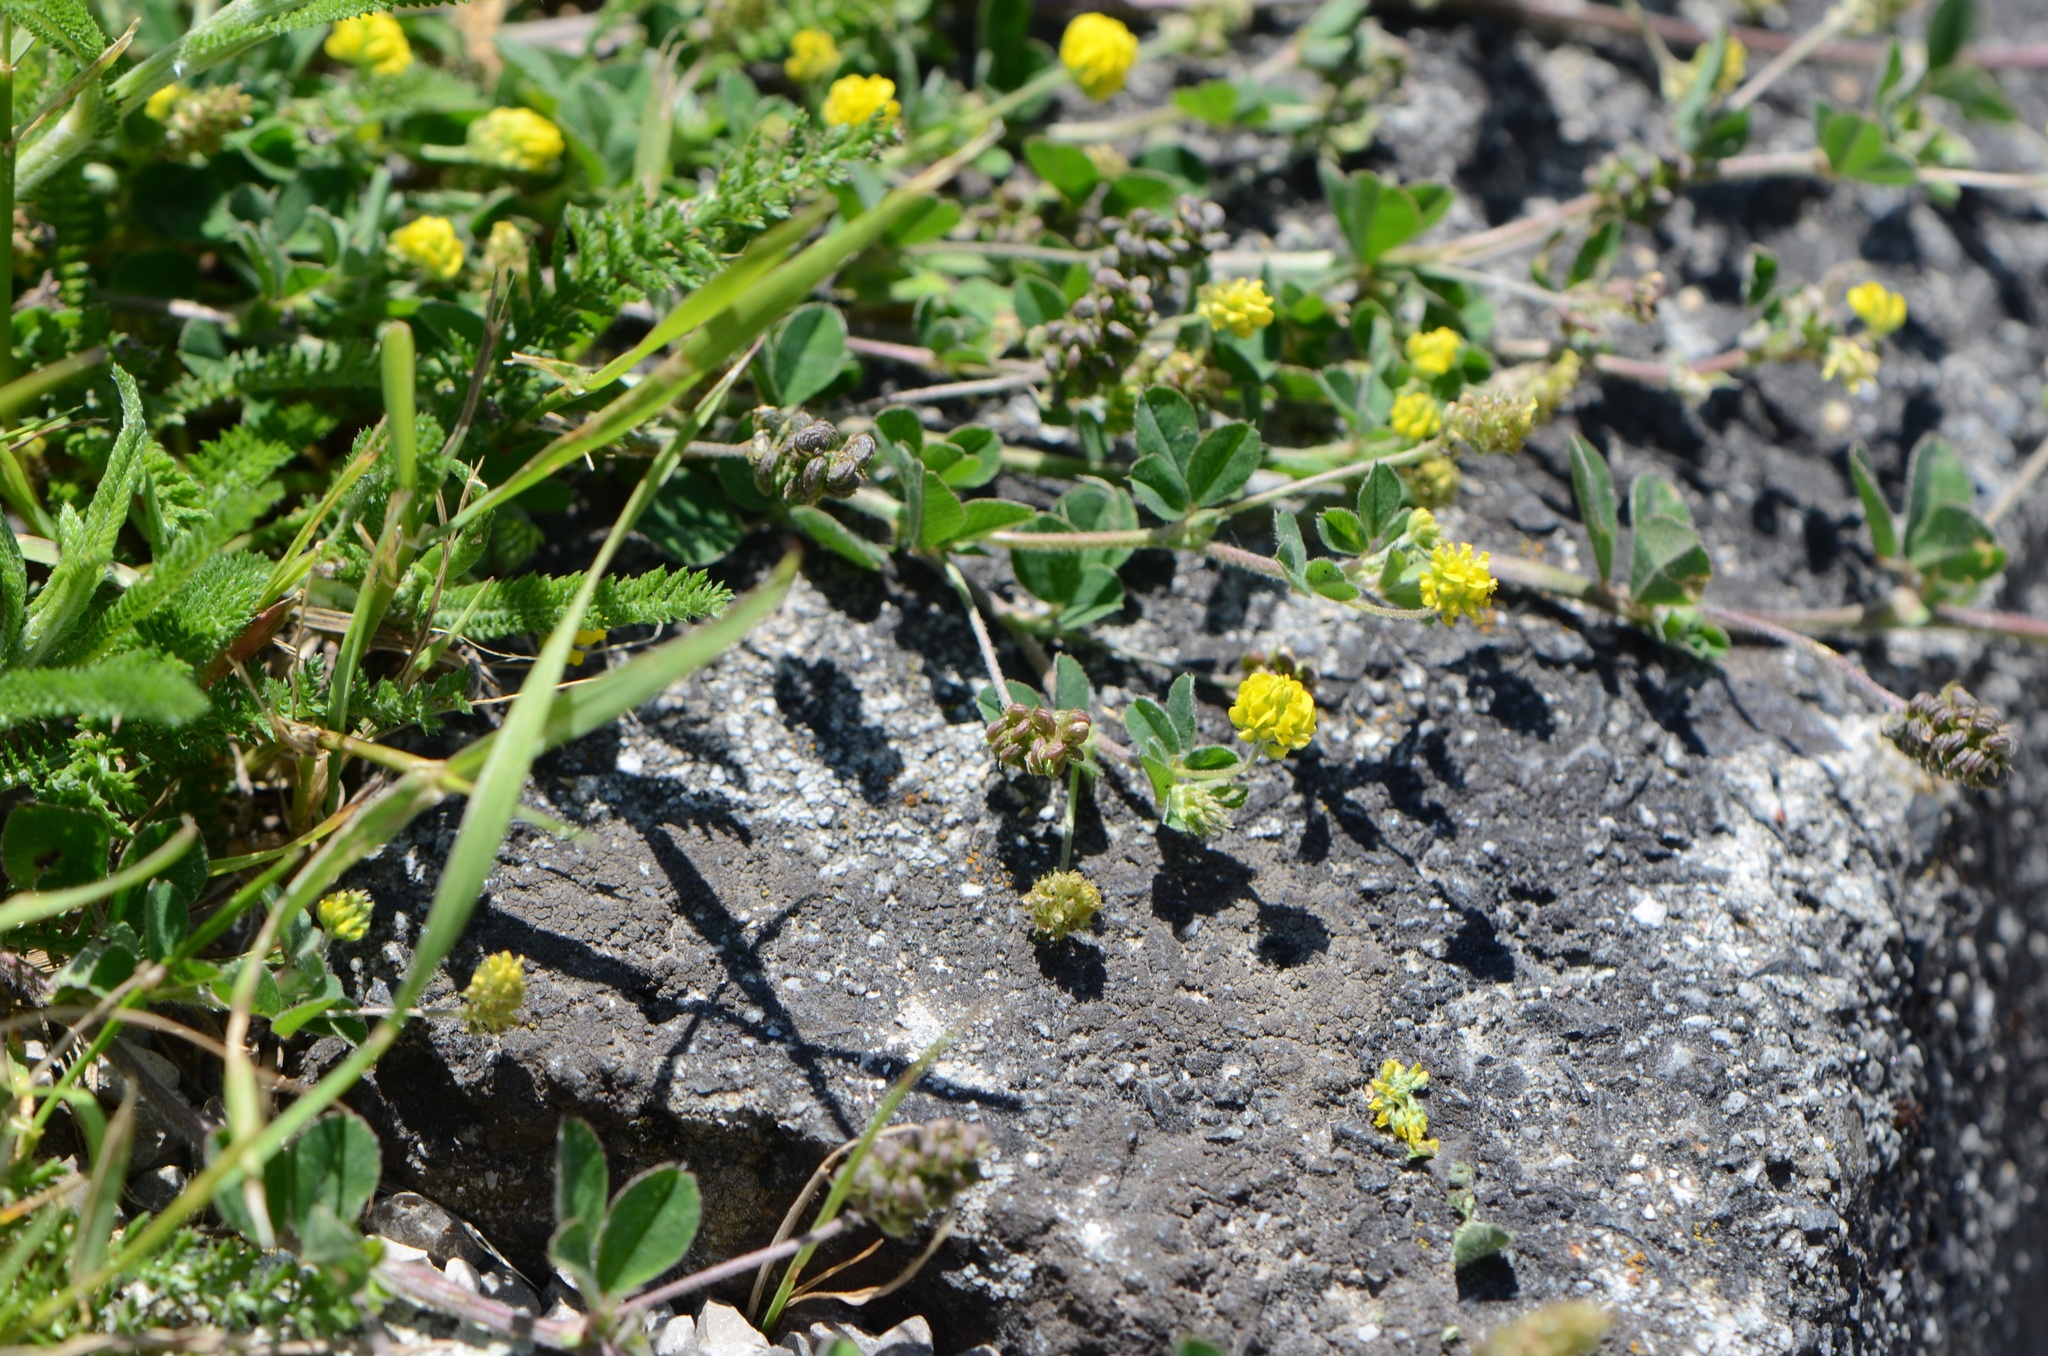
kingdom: Plantae
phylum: Tracheophyta
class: Magnoliopsida
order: Asterales
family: Asteraceae
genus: Achillea
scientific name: Achillea
